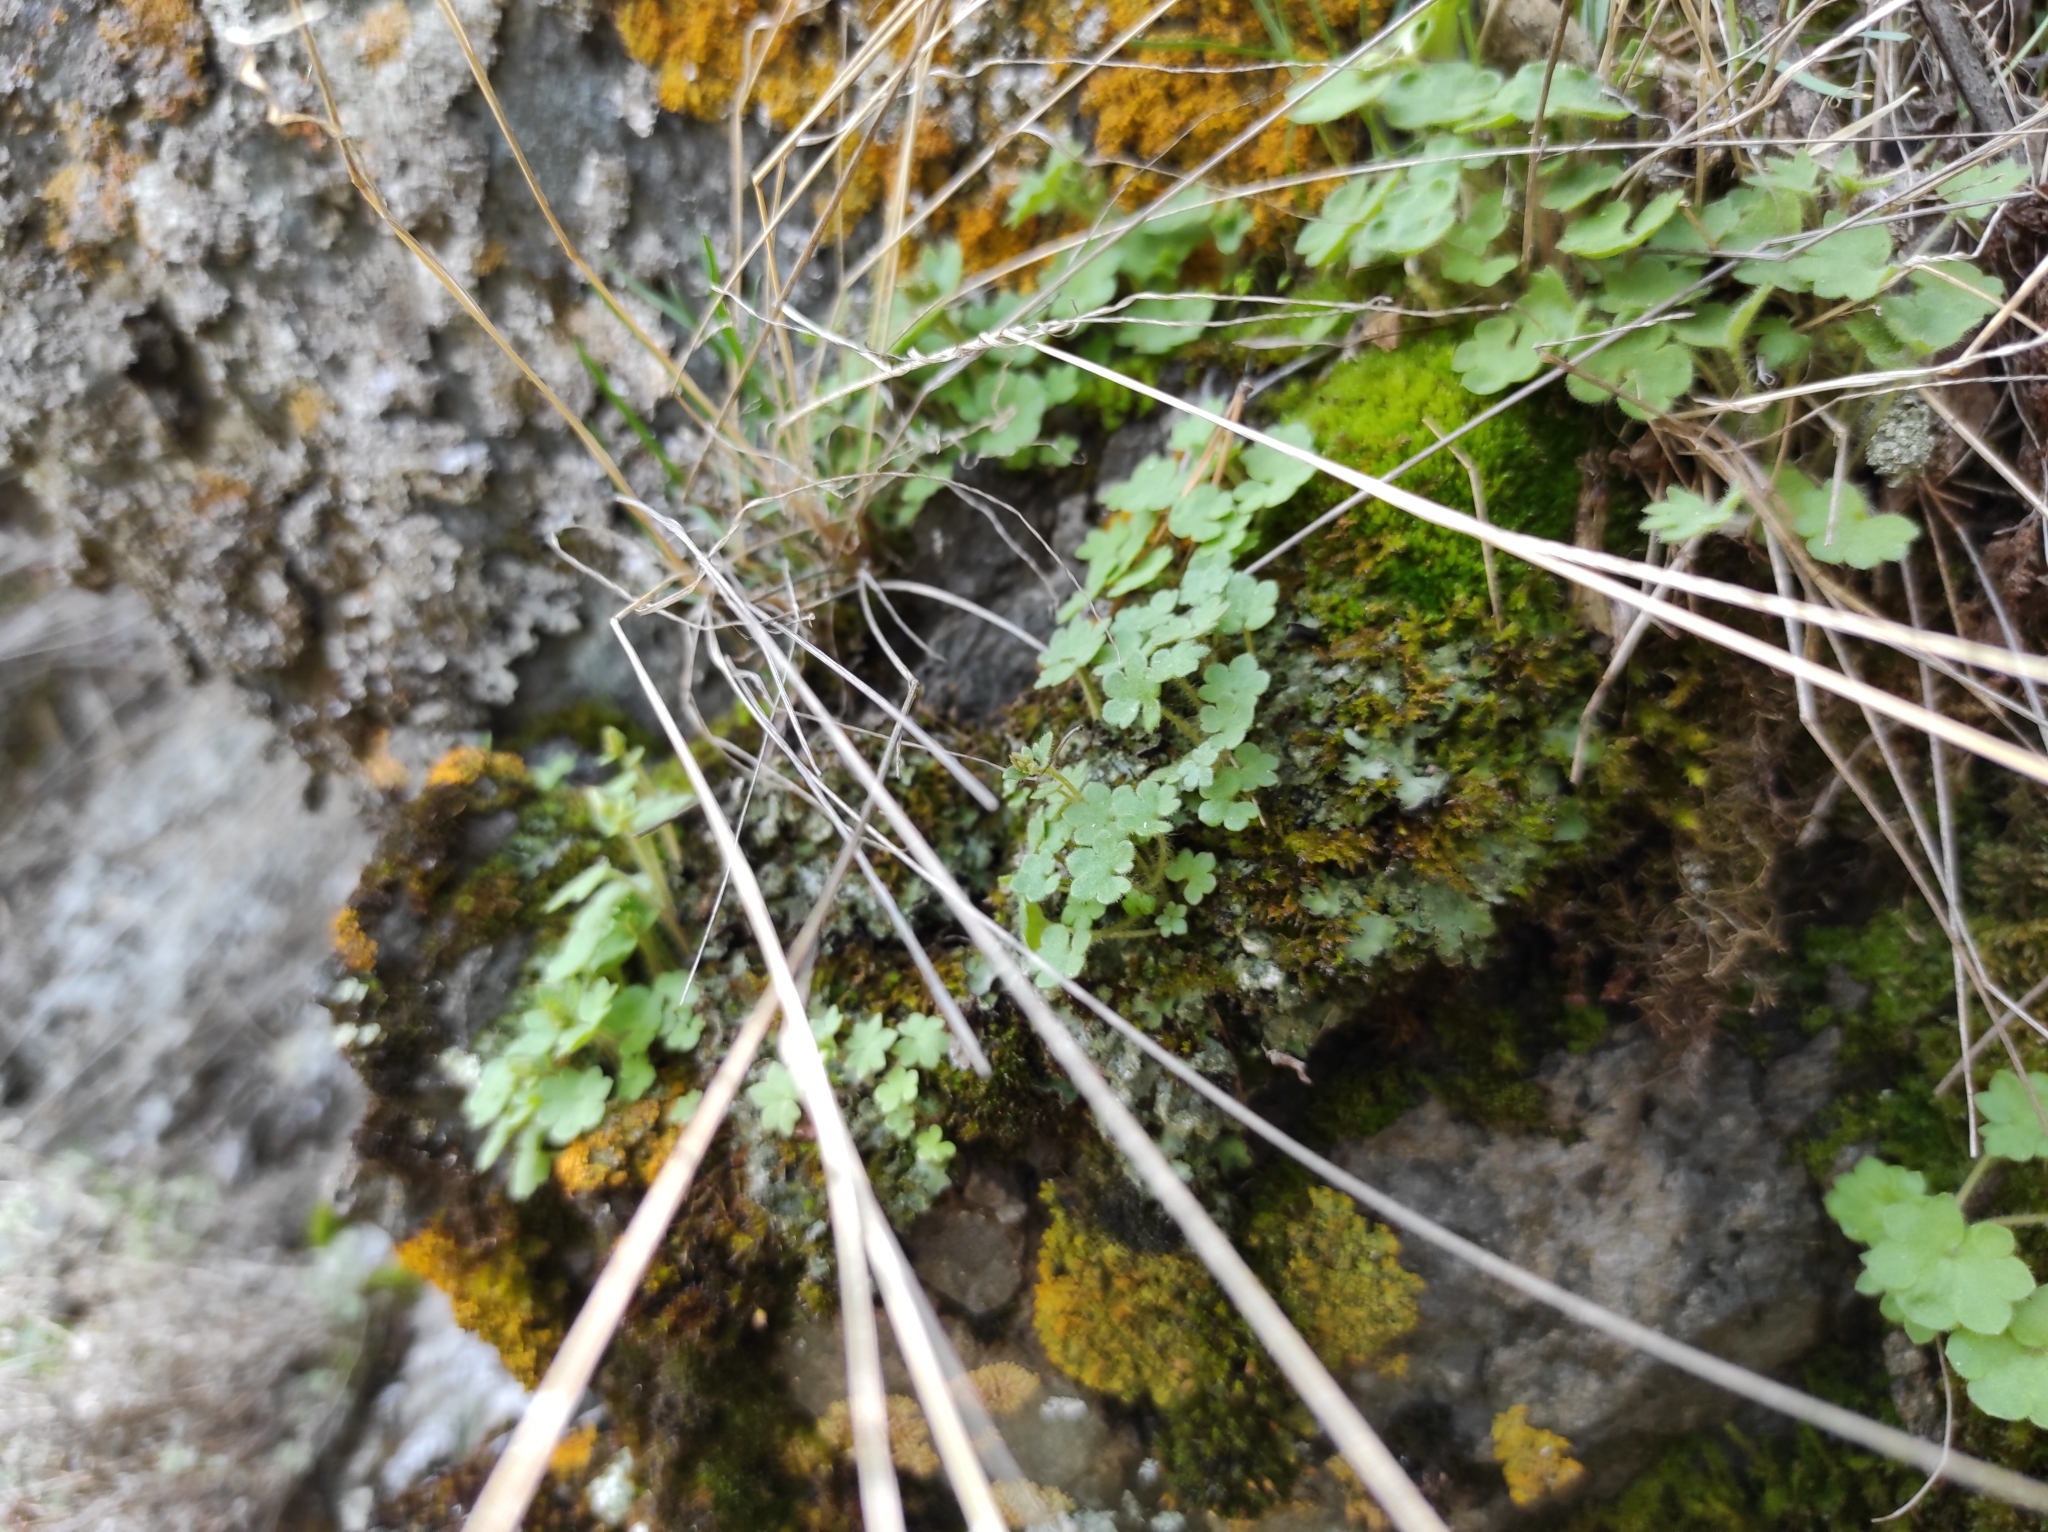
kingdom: Plantae
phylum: Tracheophyta
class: Magnoliopsida
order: Saxifragales
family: Saxifragaceae
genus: Saxifraga
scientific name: Saxifraga sibirica
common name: Siberian saxifrage
